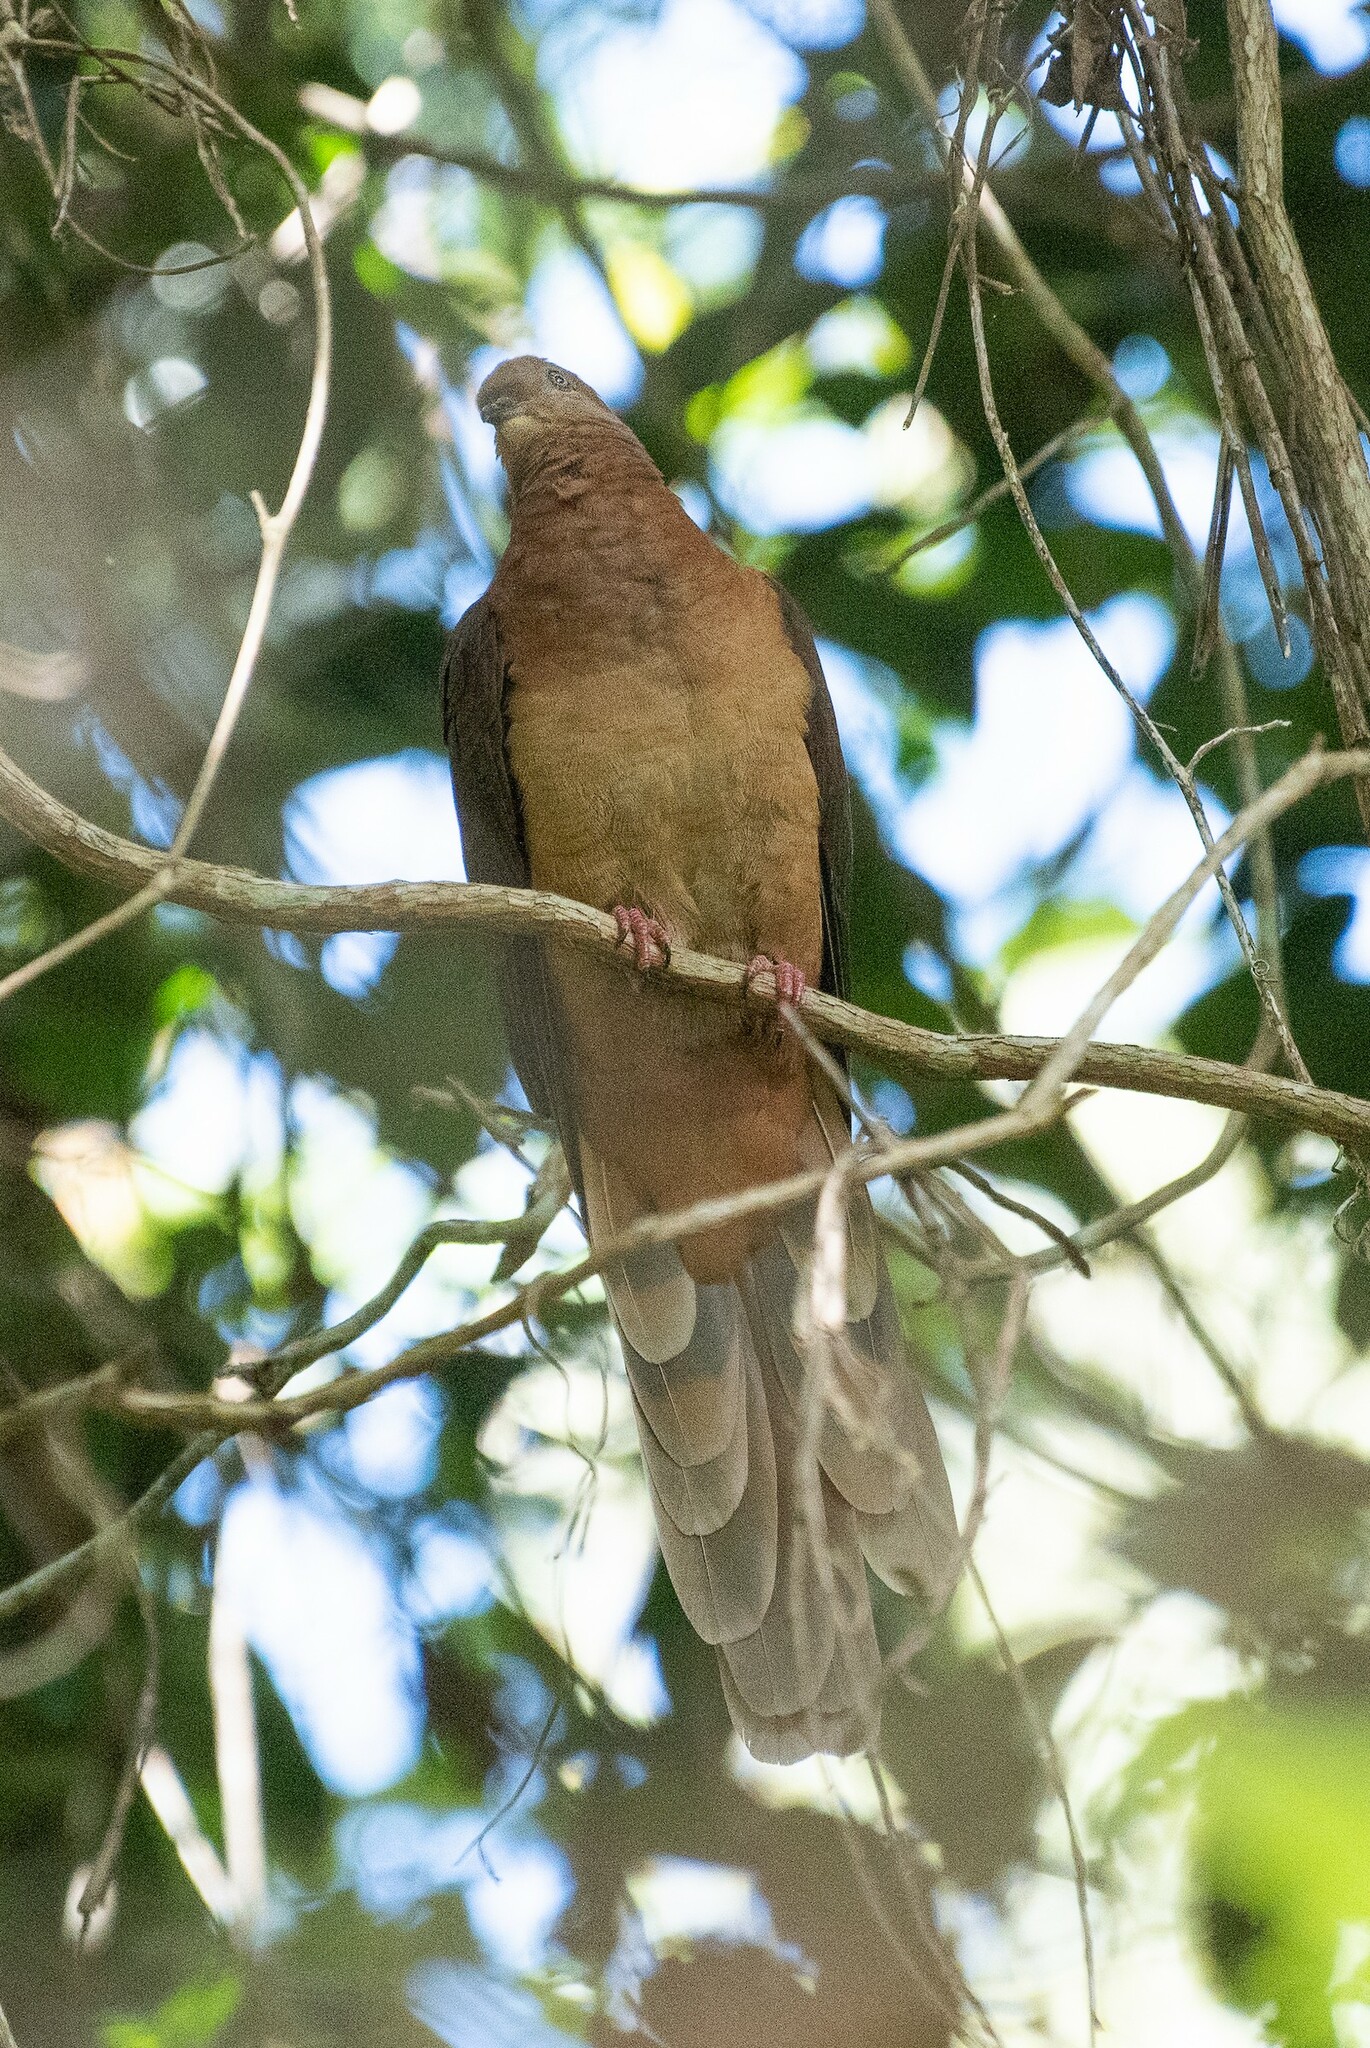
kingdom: Animalia
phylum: Chordata
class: Aves
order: Columbiformes
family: Columbidae
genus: Macropygia
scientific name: Macropygia phasianella
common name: Brown cuckoo-dove
